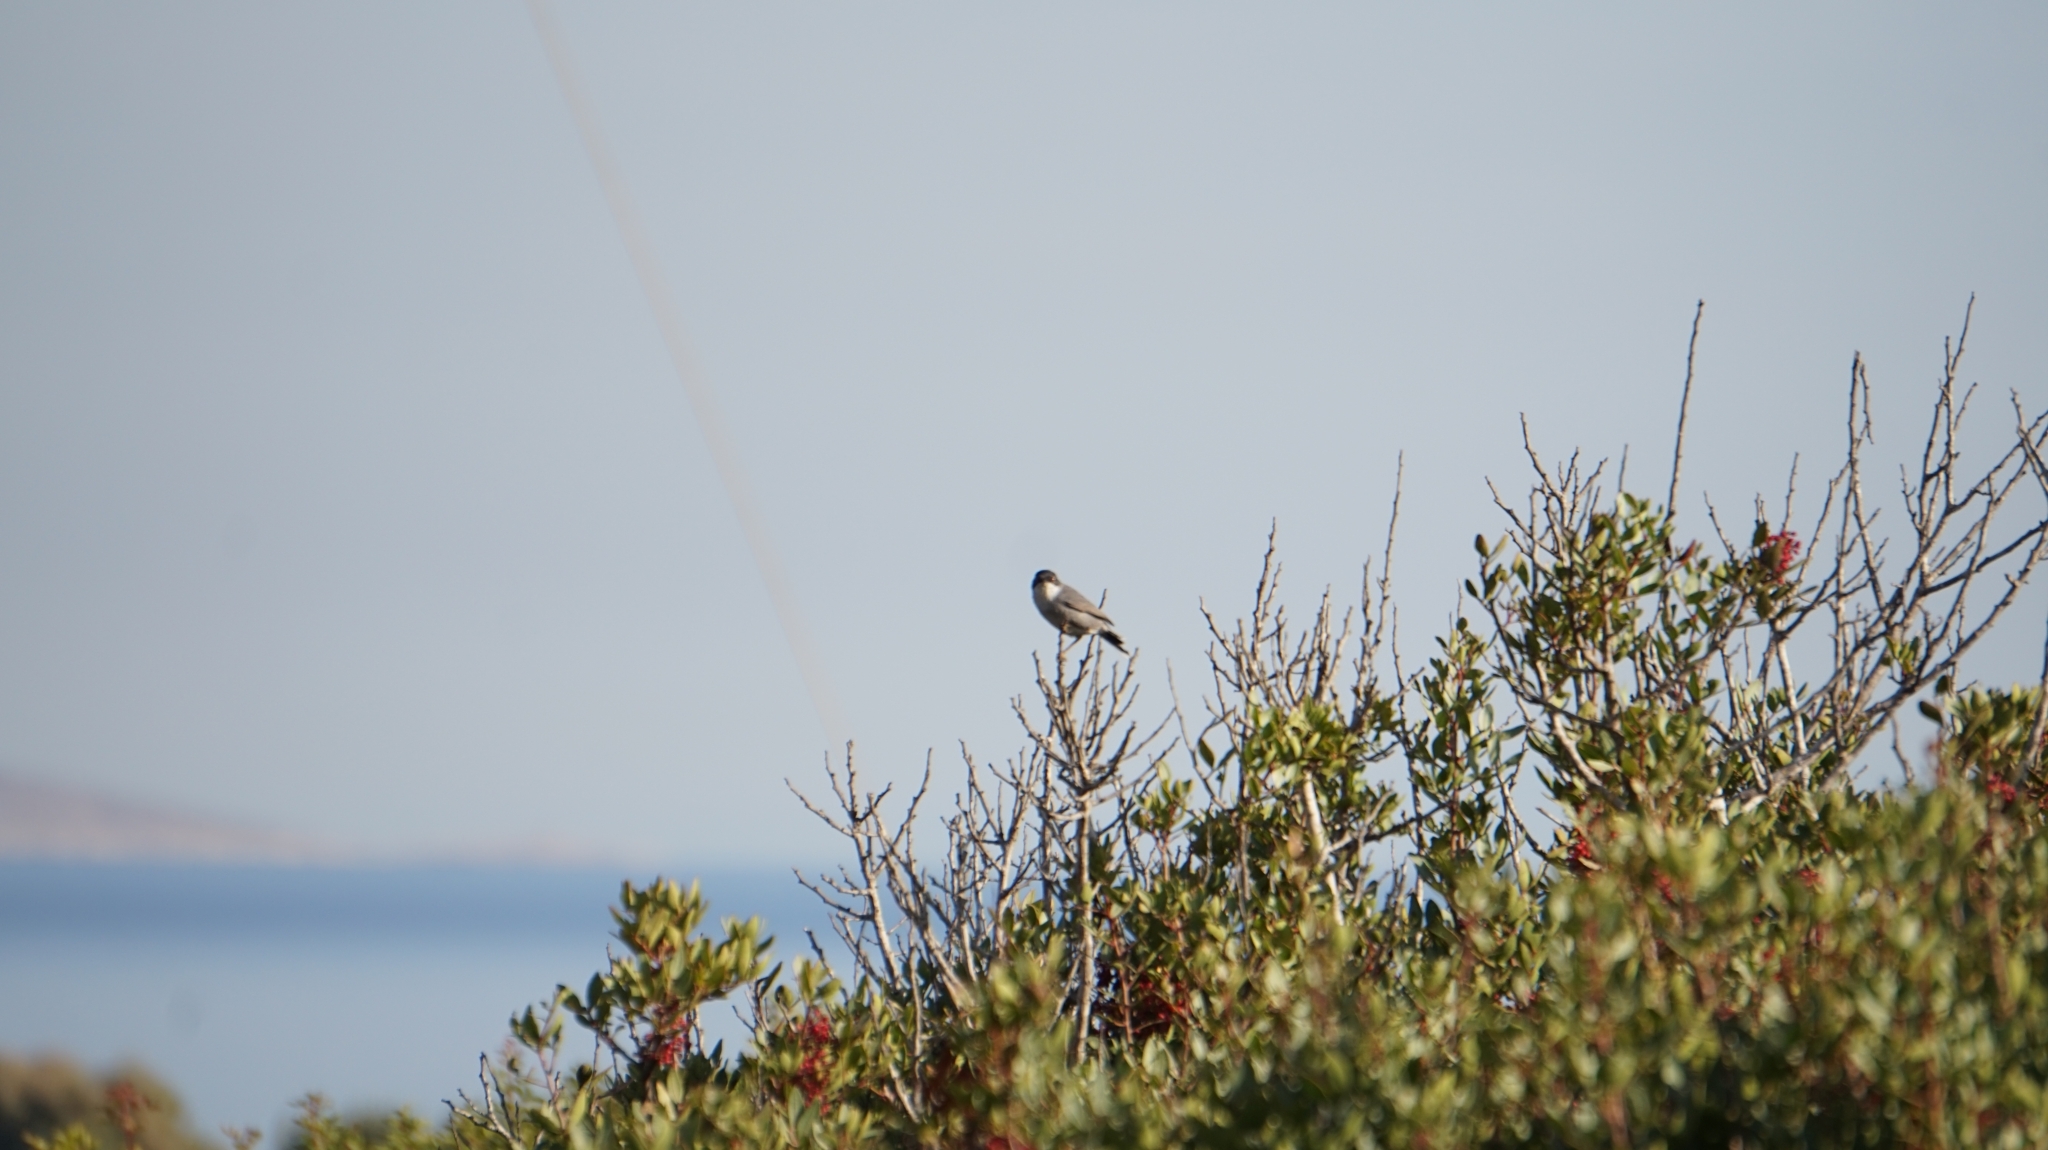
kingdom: Animalia
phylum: Chordata
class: Aves
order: Passeriformes
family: Sylviidae
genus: Curruca
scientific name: Curruca melanocephala
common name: Sardinian warbler
